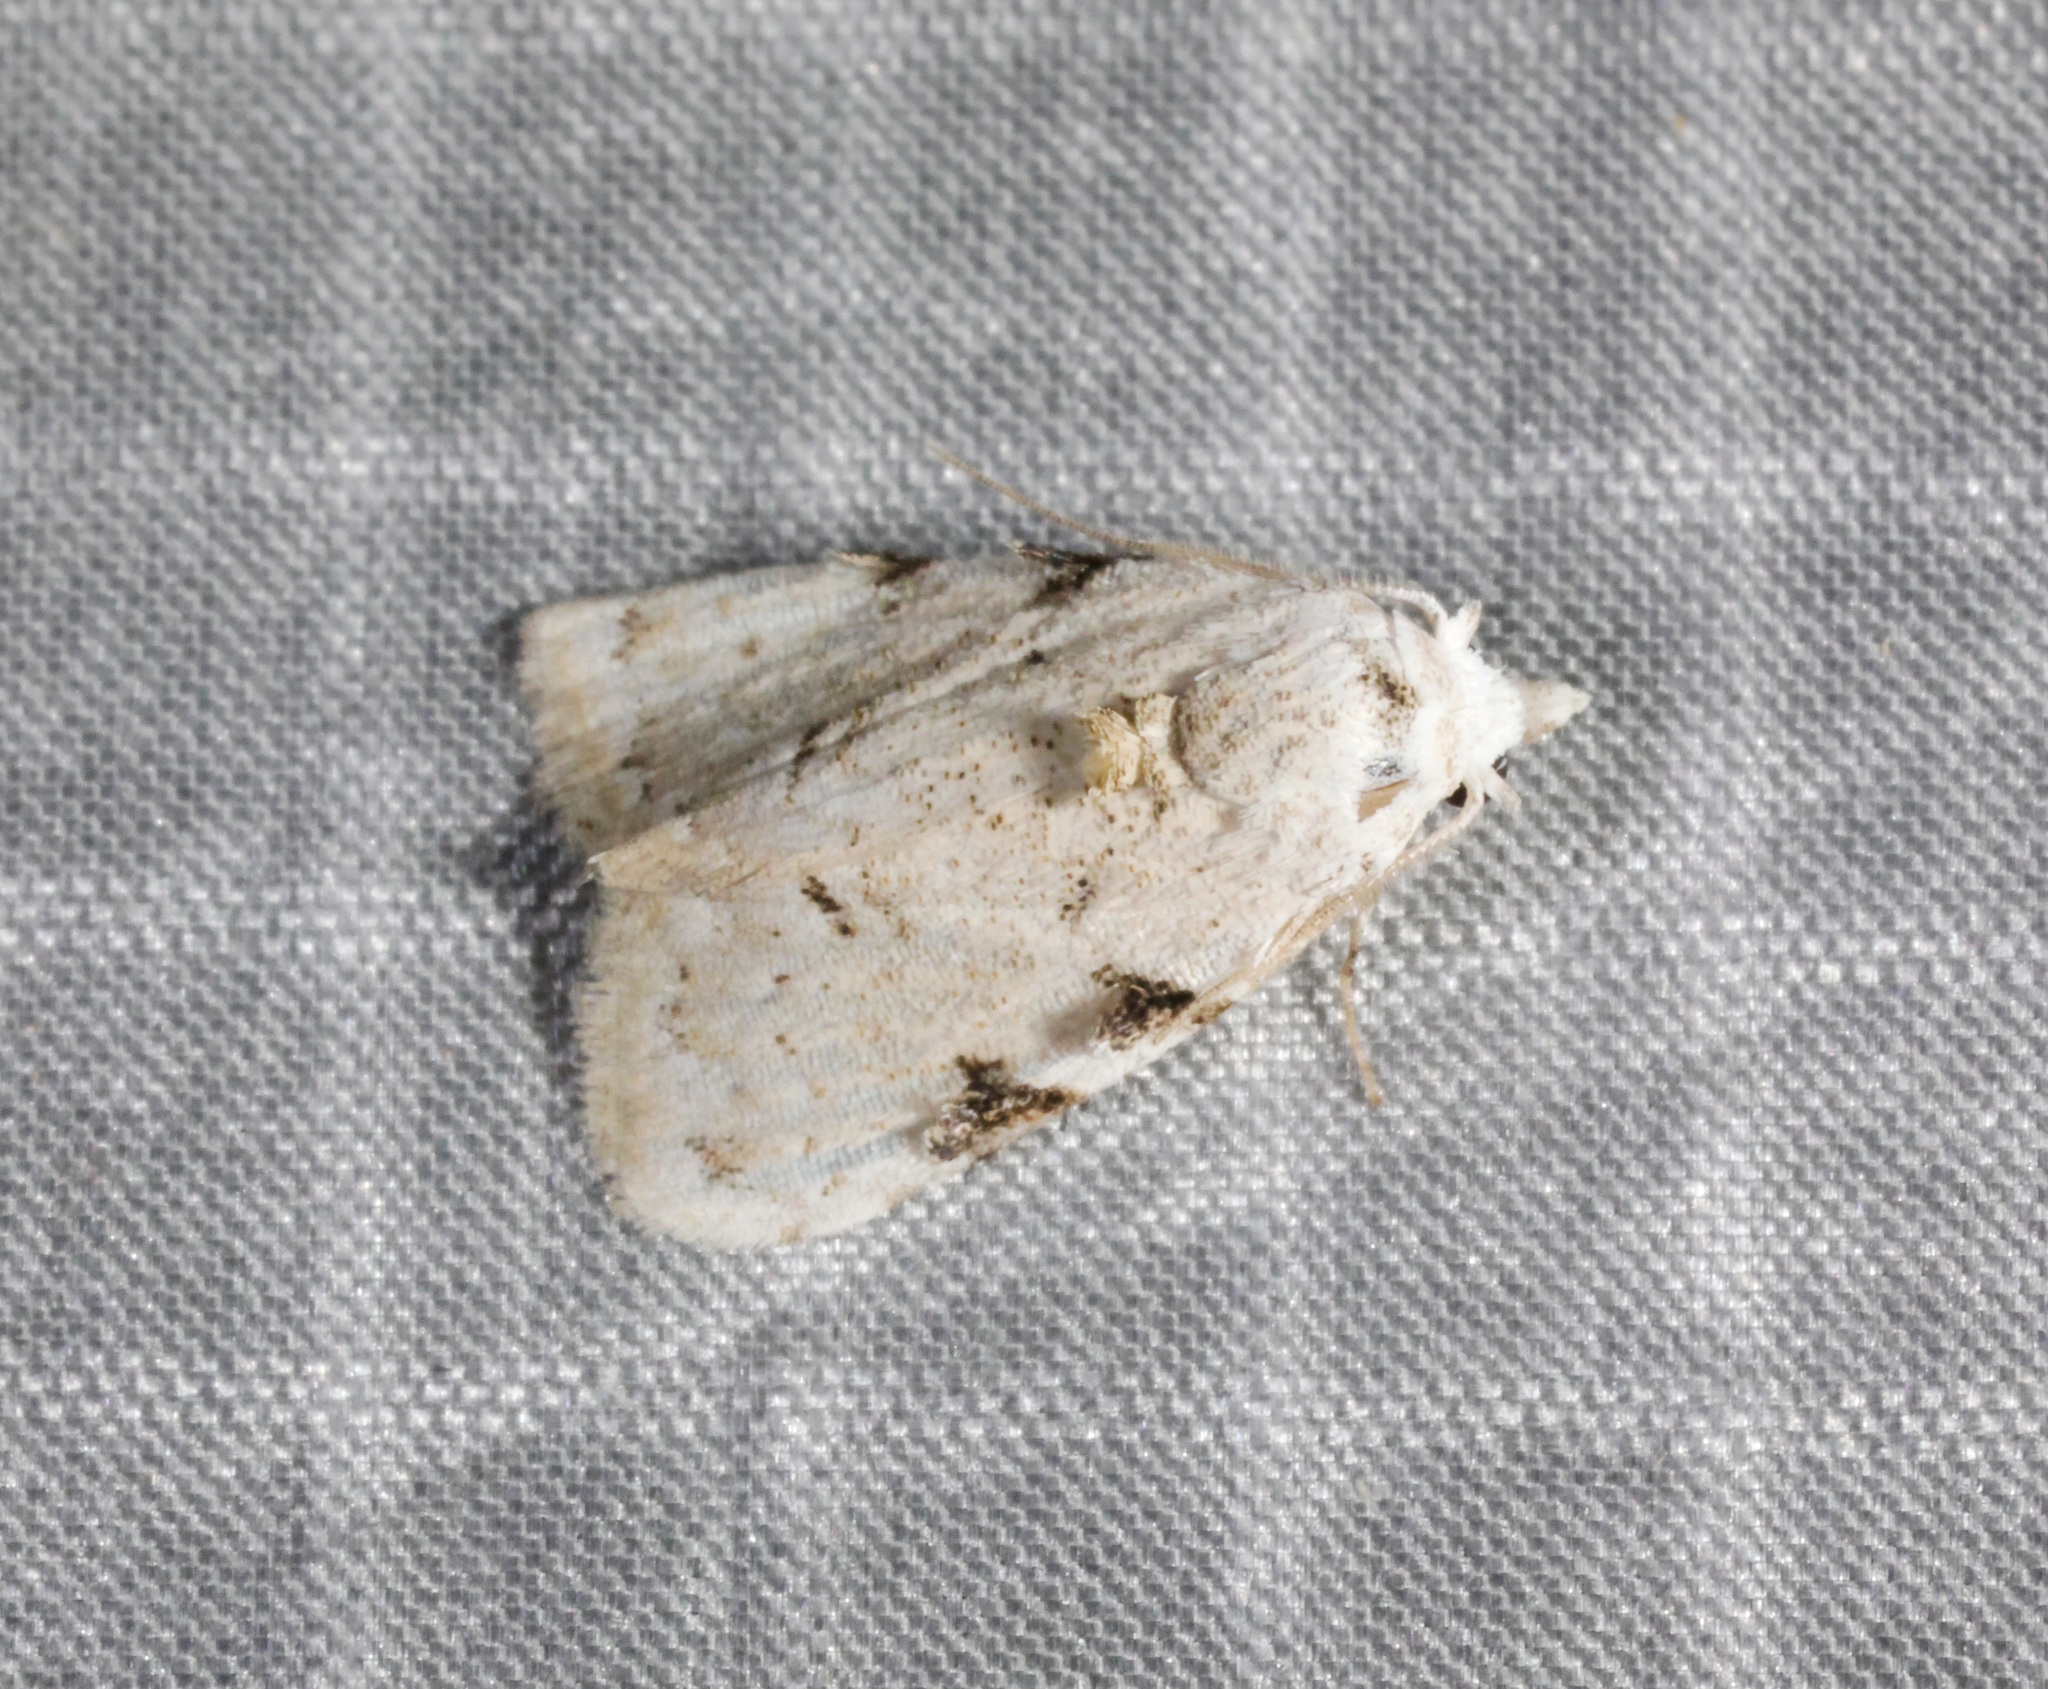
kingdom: Animalia
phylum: Arthropoda
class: Insecta
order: Lepidoptera
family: Nolidae
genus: Nola
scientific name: Nola pascua
